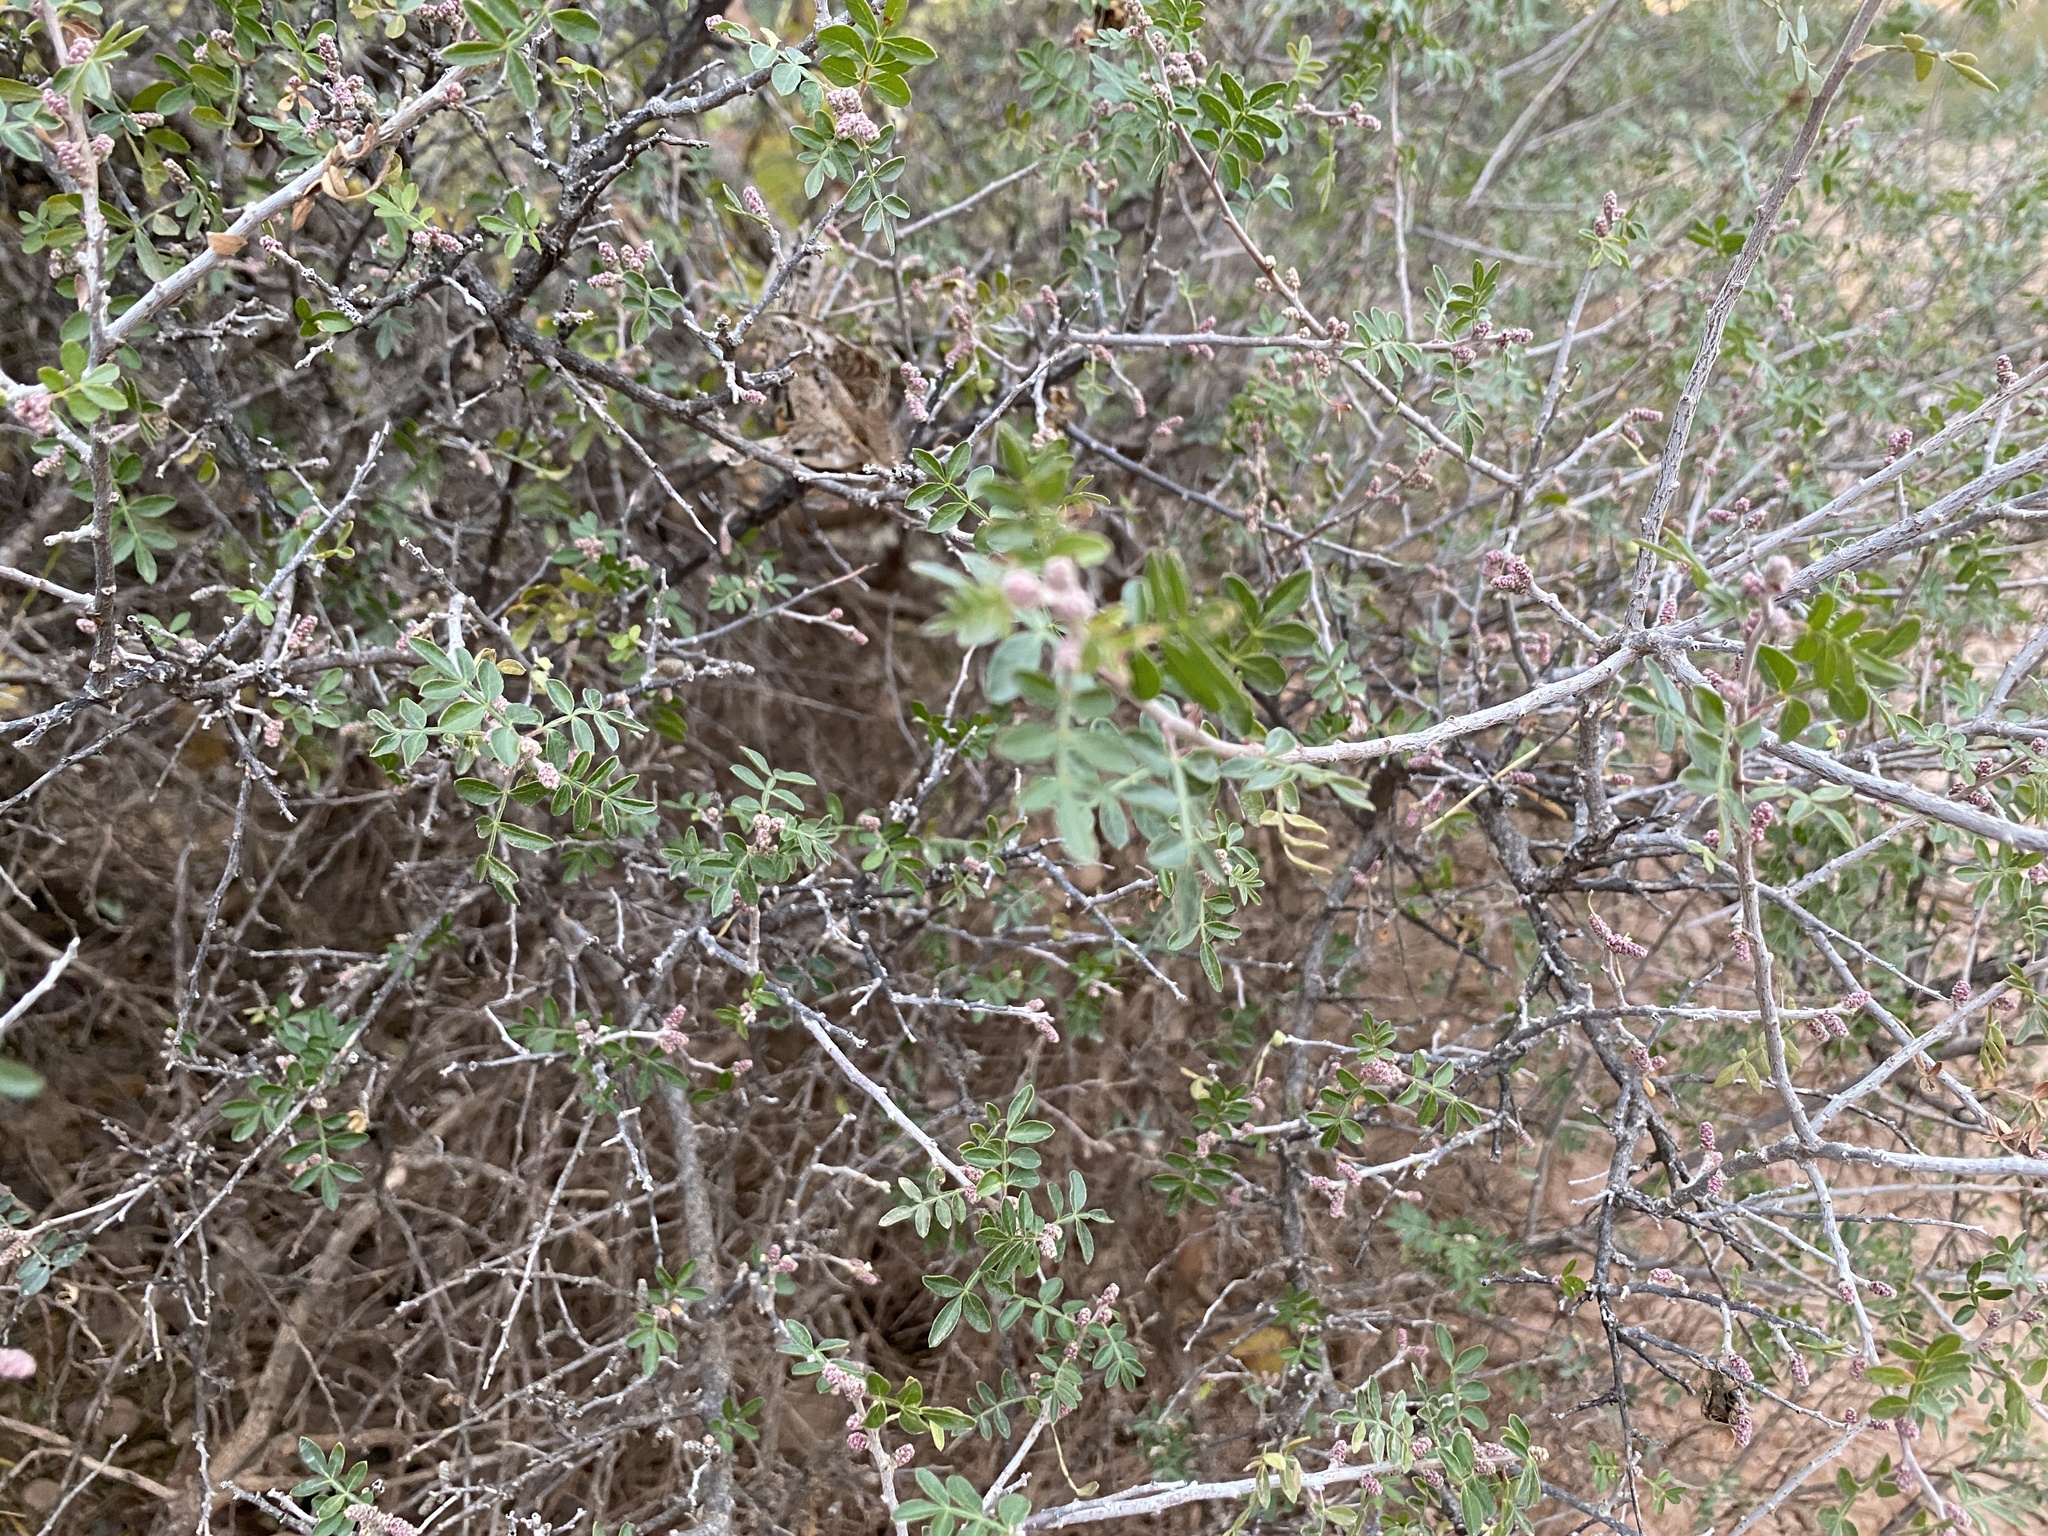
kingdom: Plantae
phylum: Tracheophyta
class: Magnoliopsida
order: Sapindales
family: Anacardiaceae
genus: Rhus
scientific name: Rhus microphylla
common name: Desert sumac
